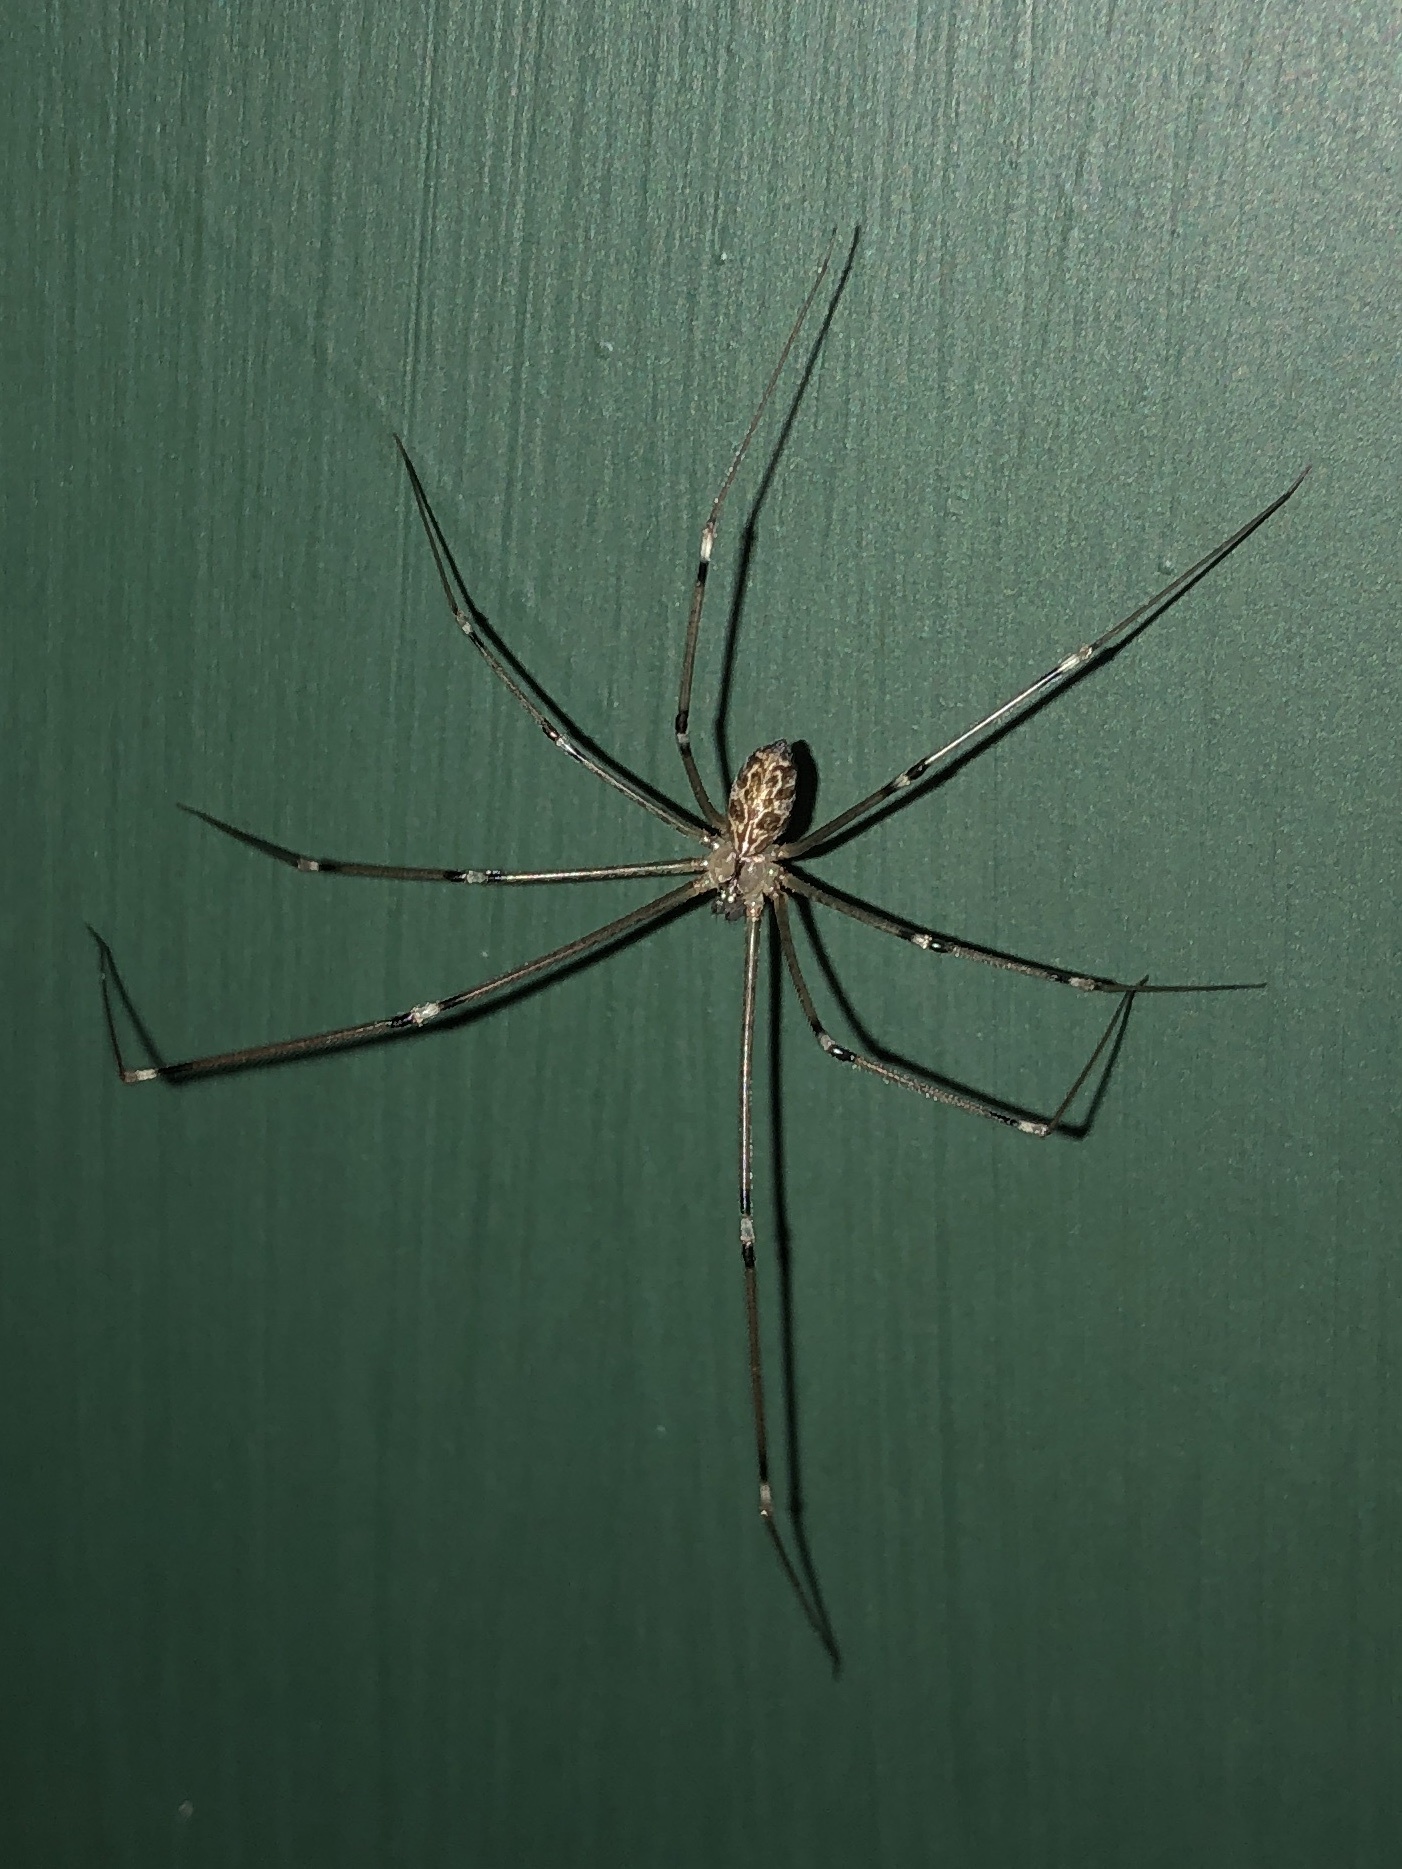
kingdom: Animalia
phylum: Arthropoda
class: Arachnida
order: Araneae
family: Pholcidae
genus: Holocnemus
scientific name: Holocnemus pluchei
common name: Marbled cellar spider
